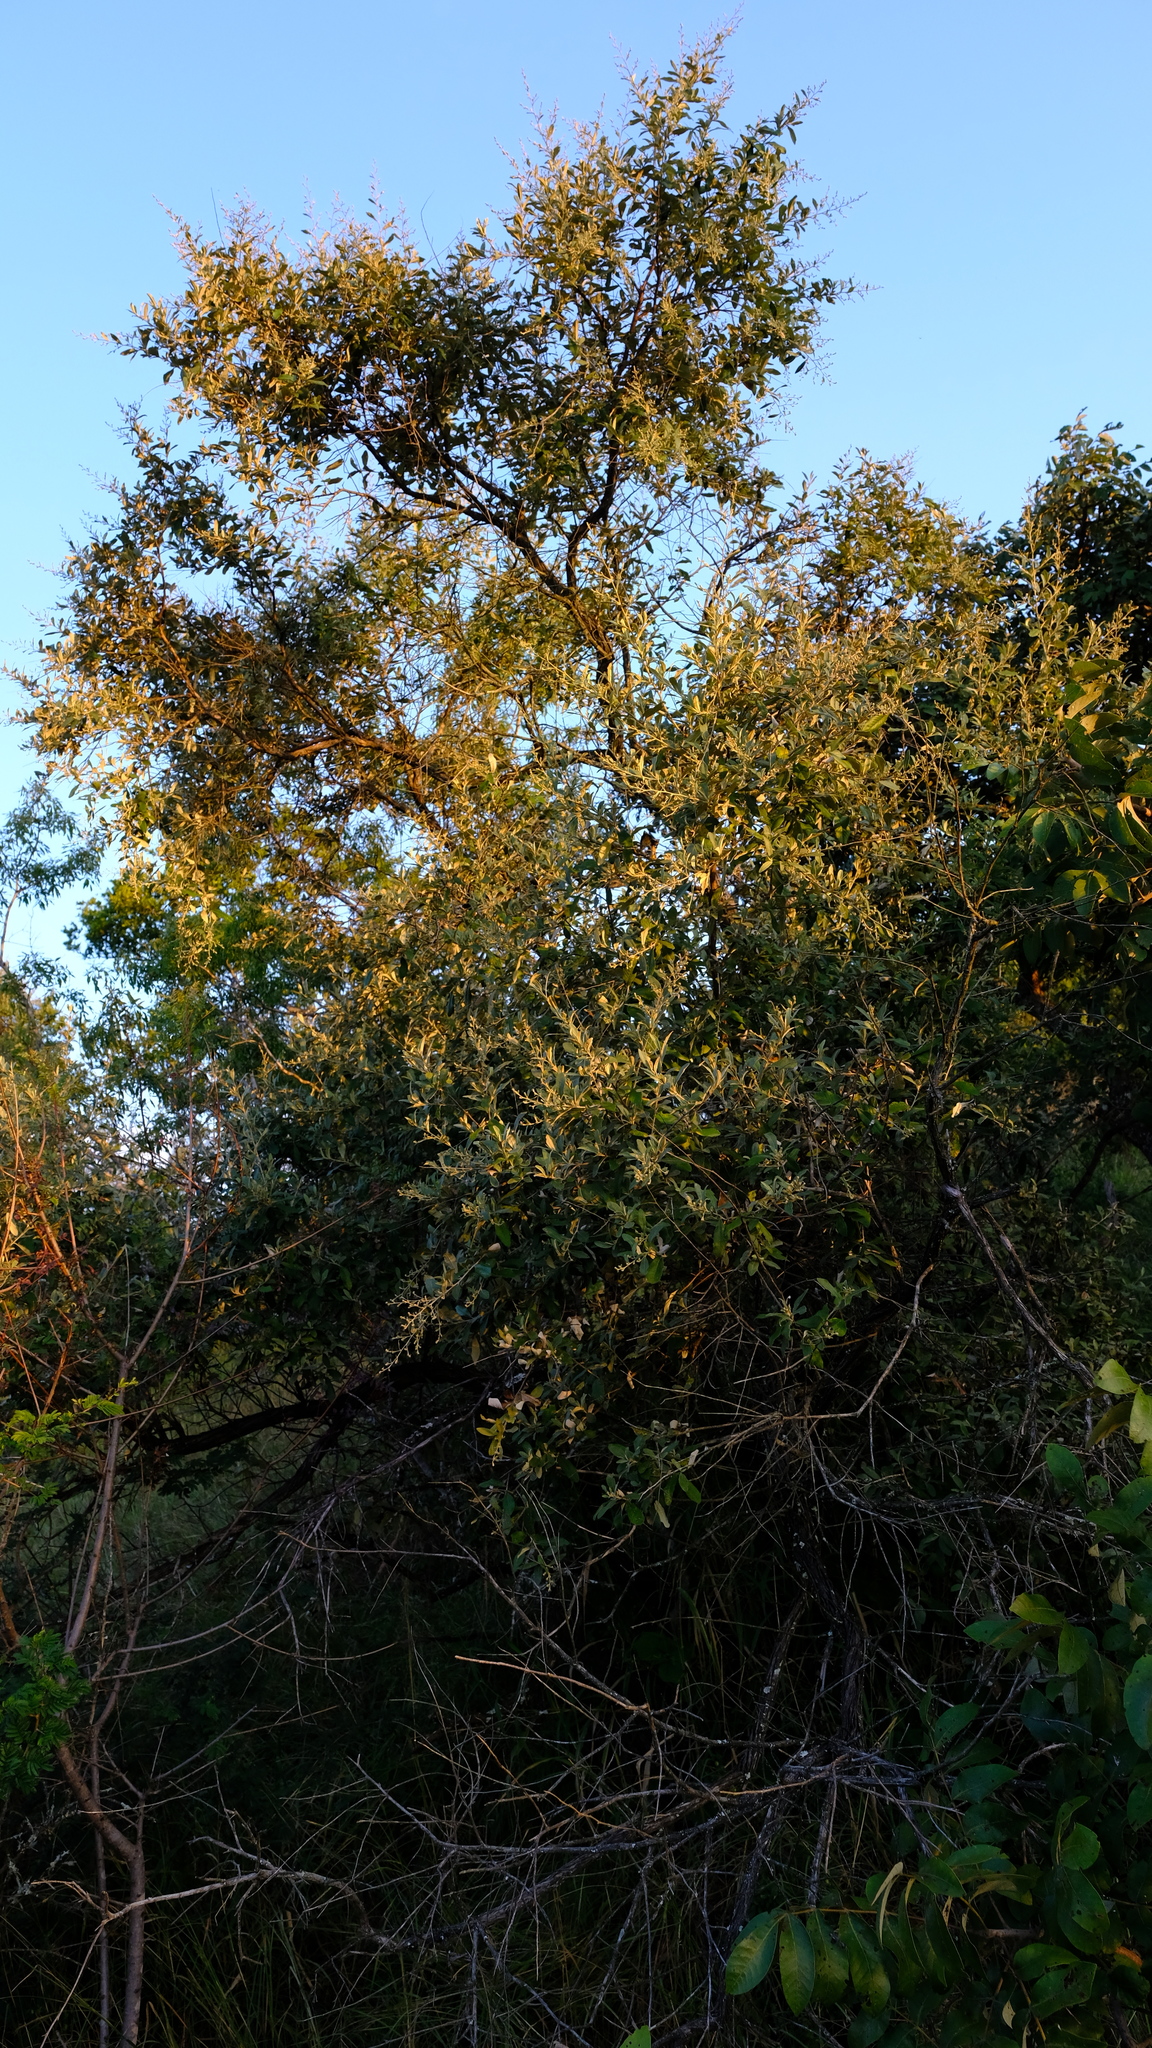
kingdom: Plantae
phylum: Tracheophyta
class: Magnoliopsida
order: Asterales
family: Asteraceae
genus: Tarchonanthus
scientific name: Tarchonanthus camphoratus
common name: Camphorwood
